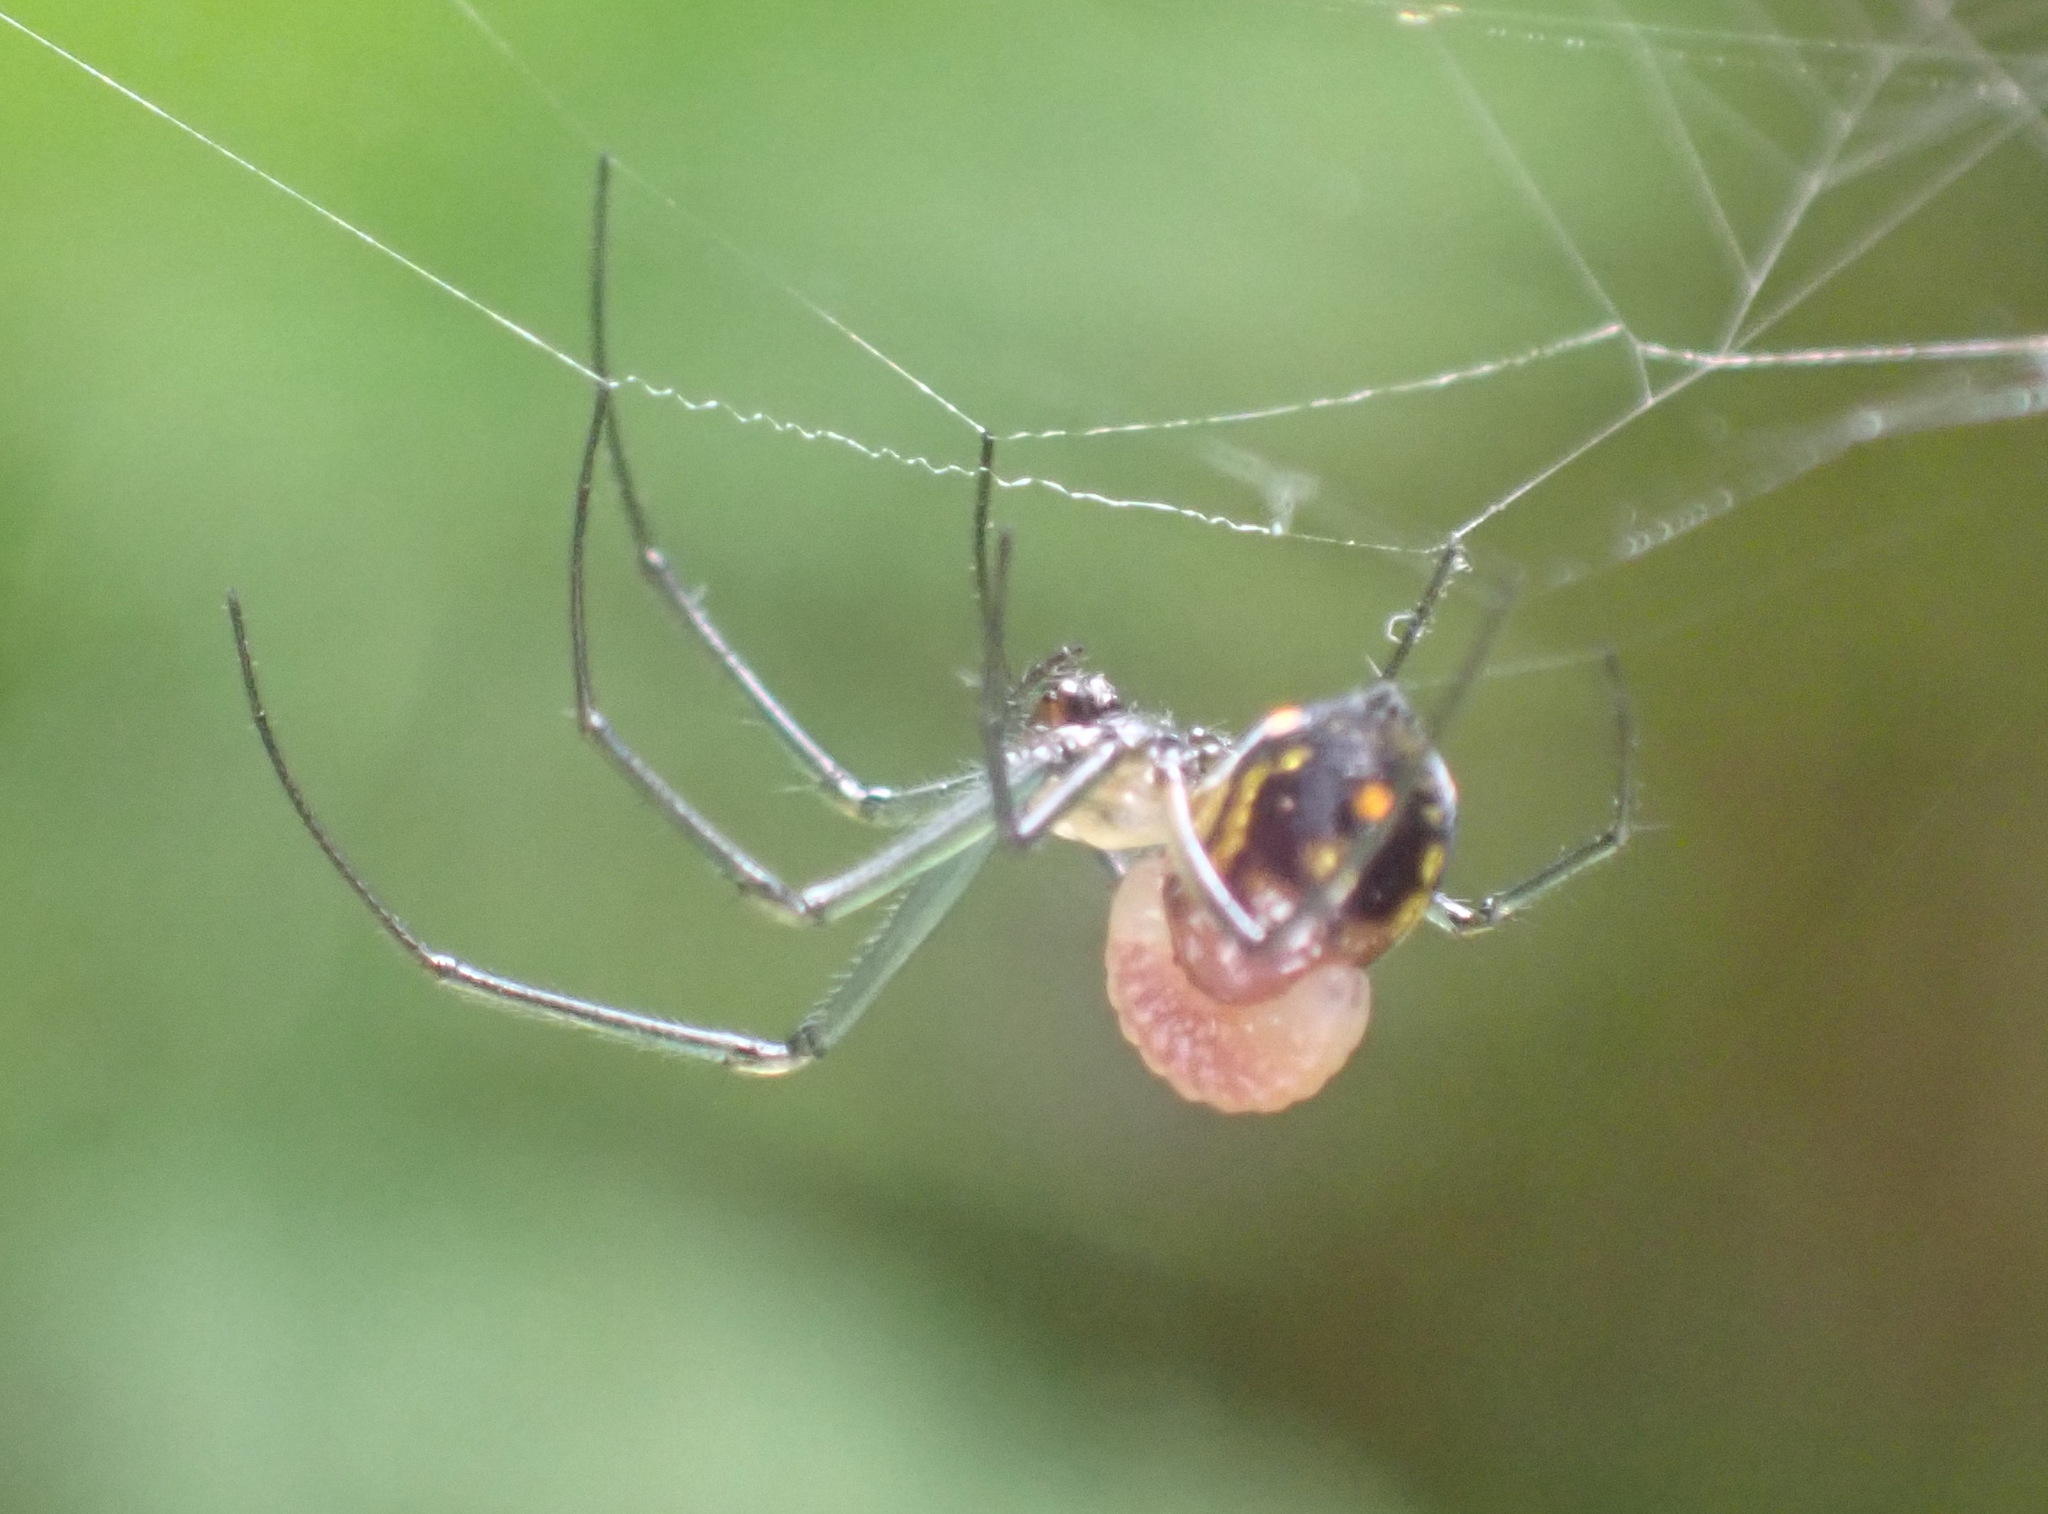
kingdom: Animalia
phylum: Arthropoda
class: Arachnida
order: Araneae
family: Tetragnathidae
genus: Leucauge
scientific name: Leucauge thomeensis
